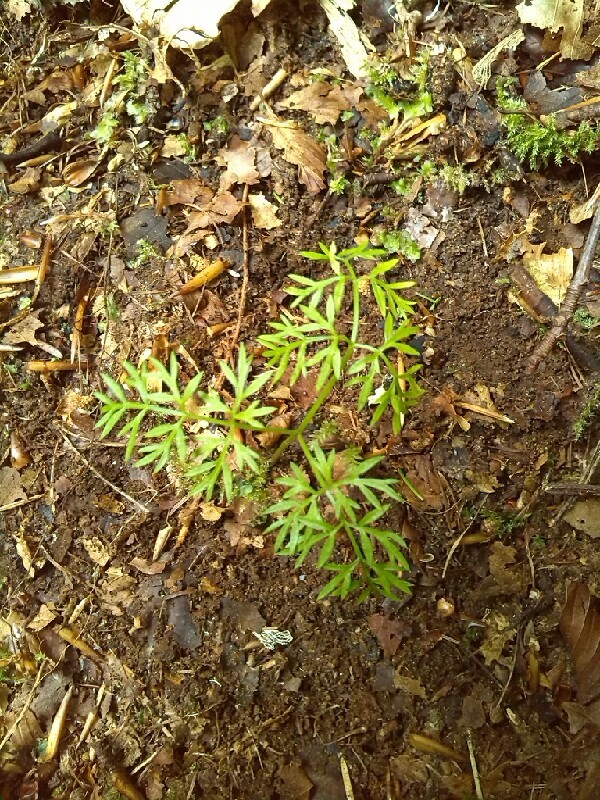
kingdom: Plantae
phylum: Tracheophyta
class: Magnoliopsida
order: Apiales
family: Apiaceae
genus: Conopodium
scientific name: Conopodium majus
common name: Pignut
